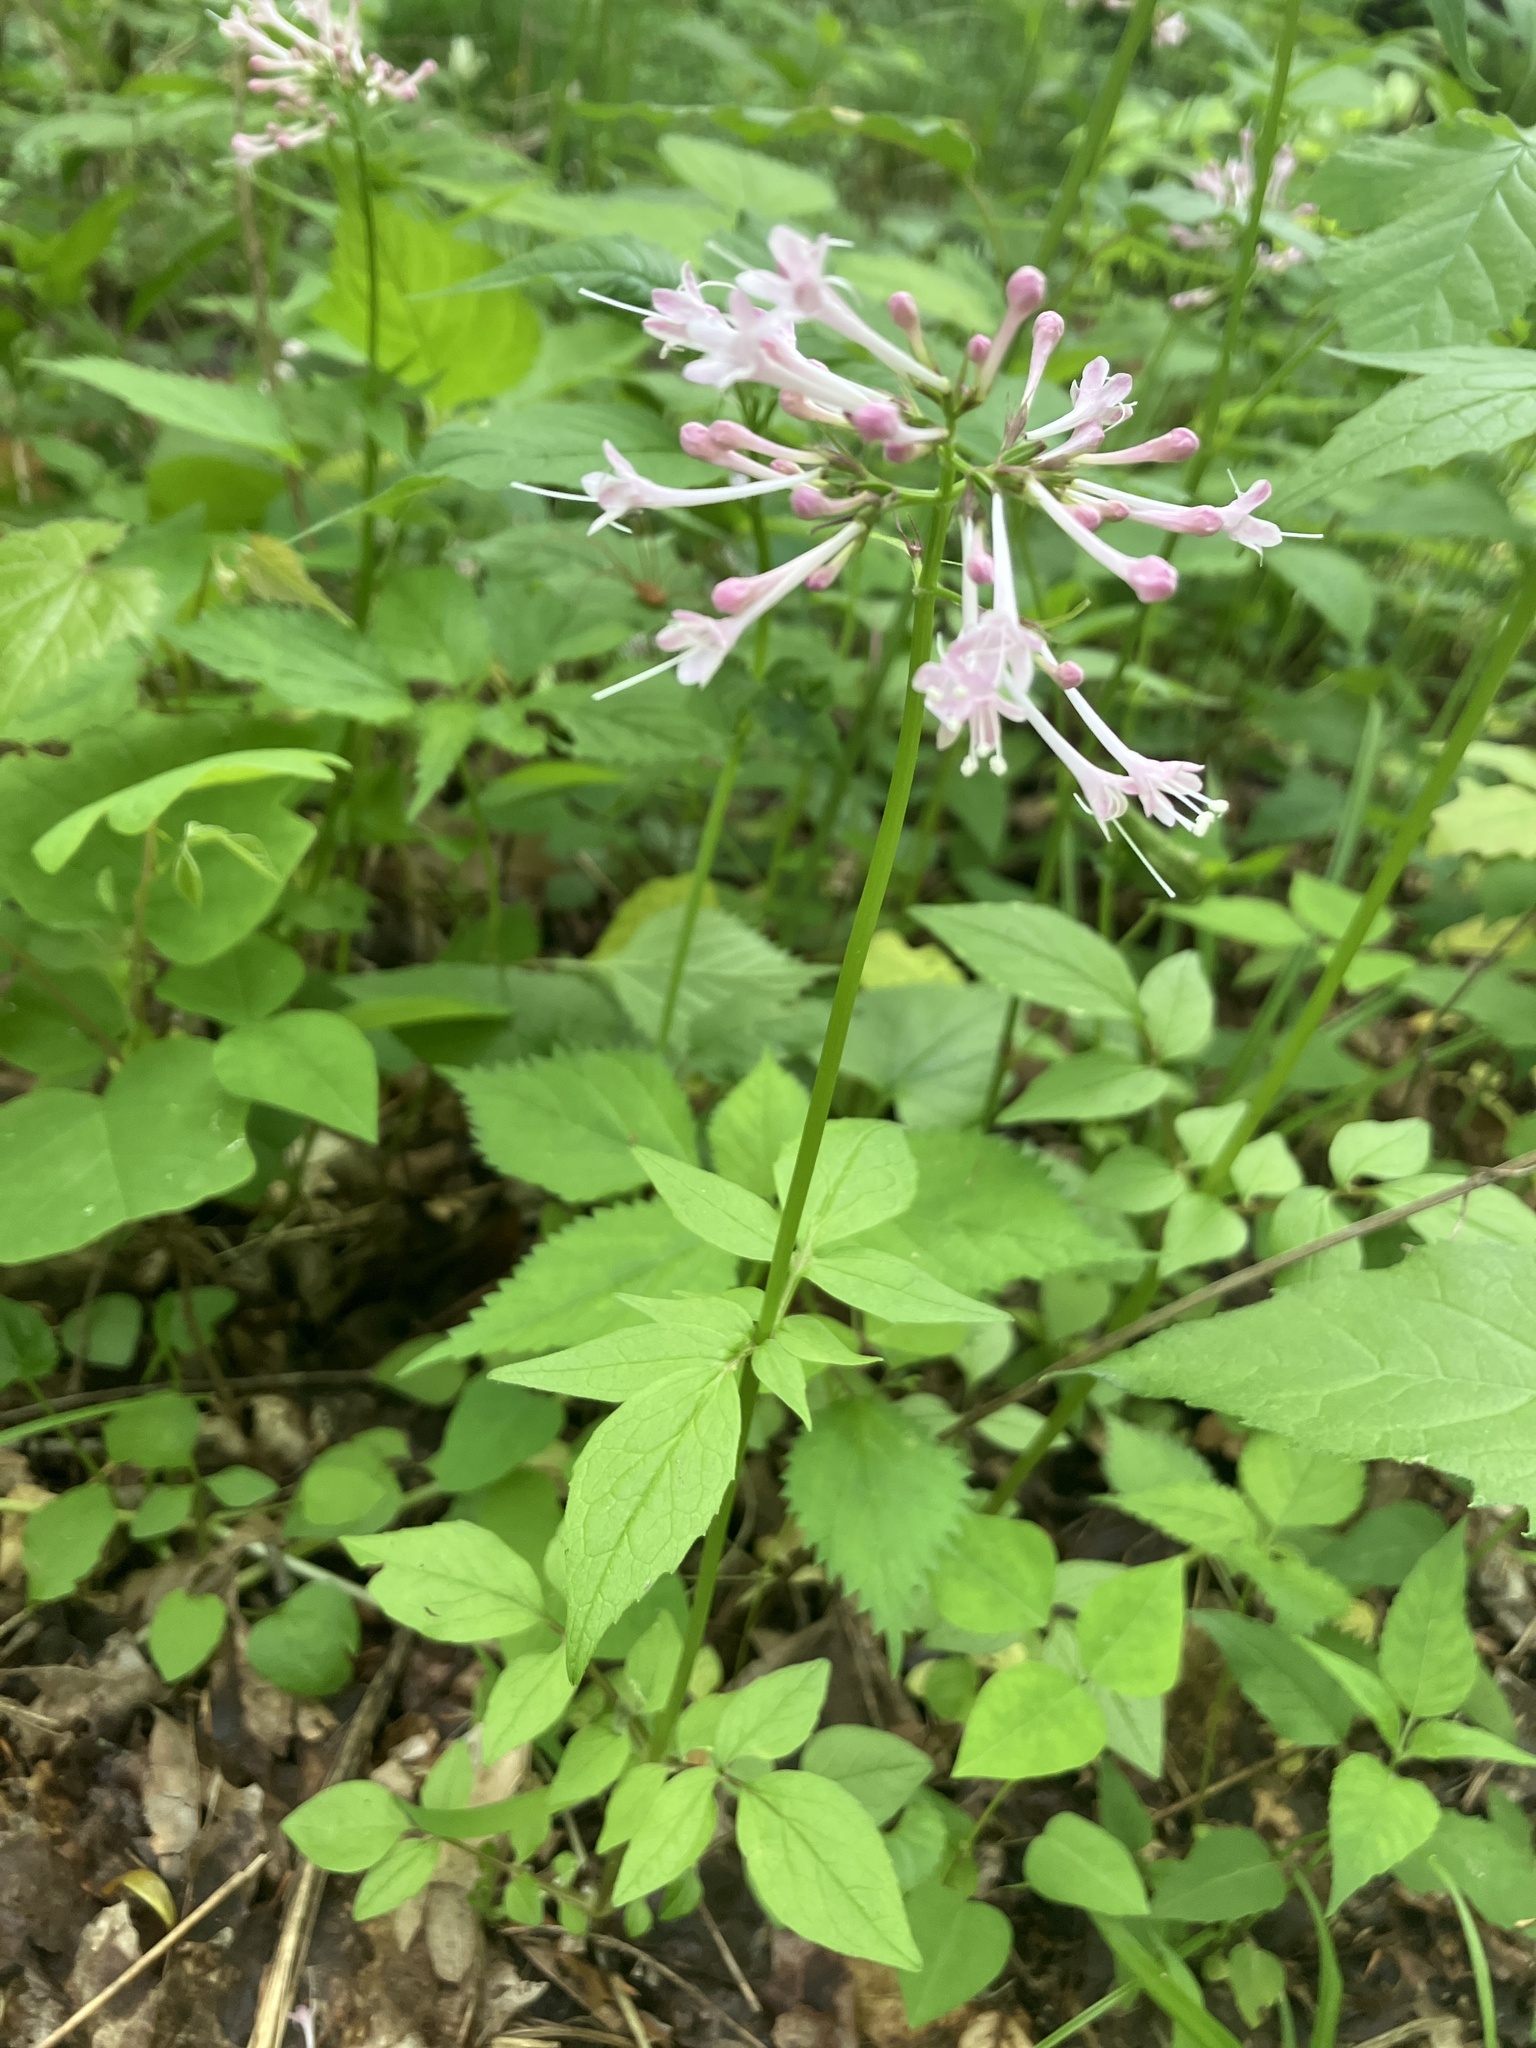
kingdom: Plantae
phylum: Tracheophyta
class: Magnoliopsida
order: Dipsacales
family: Caprifoliaceae
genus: Valeriana
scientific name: Valeriana pauciflora
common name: Long-tube valeriana
